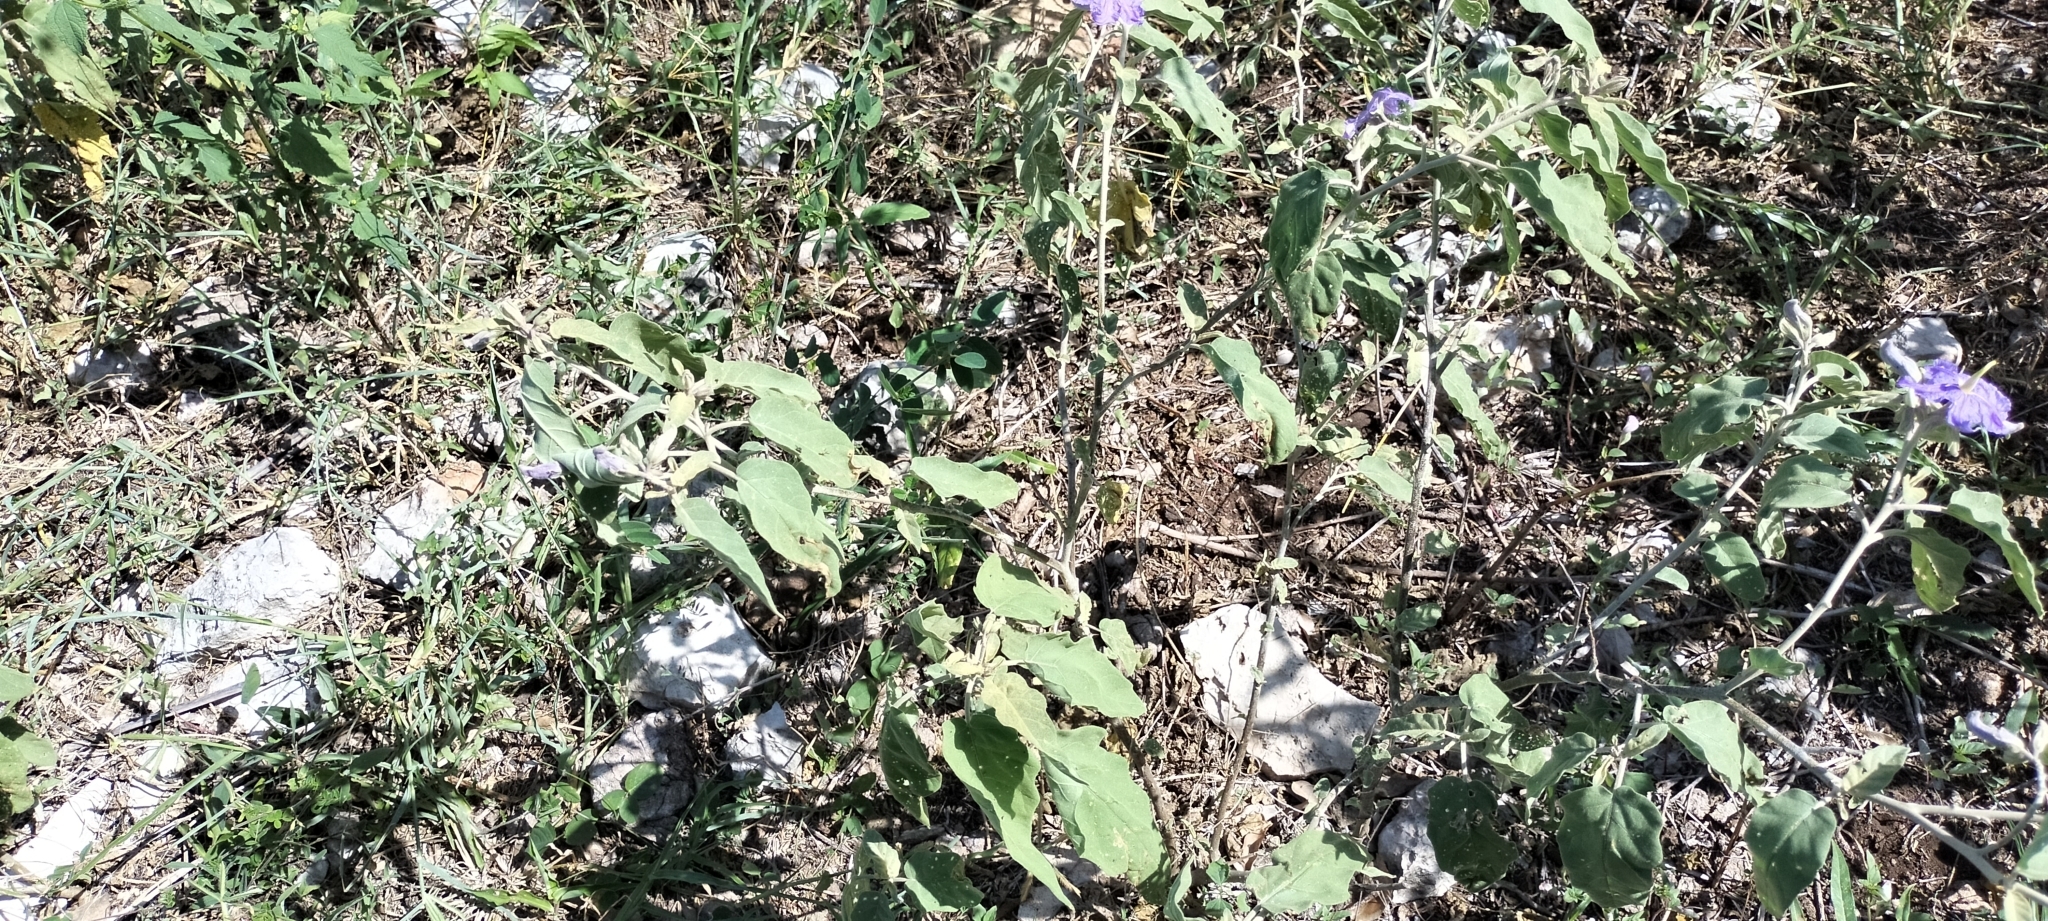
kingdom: Plantae
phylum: Tracheophyta
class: Magnoliopsida
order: Solanales
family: Solanaceae
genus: Solanum
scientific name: Solanum houstonii
